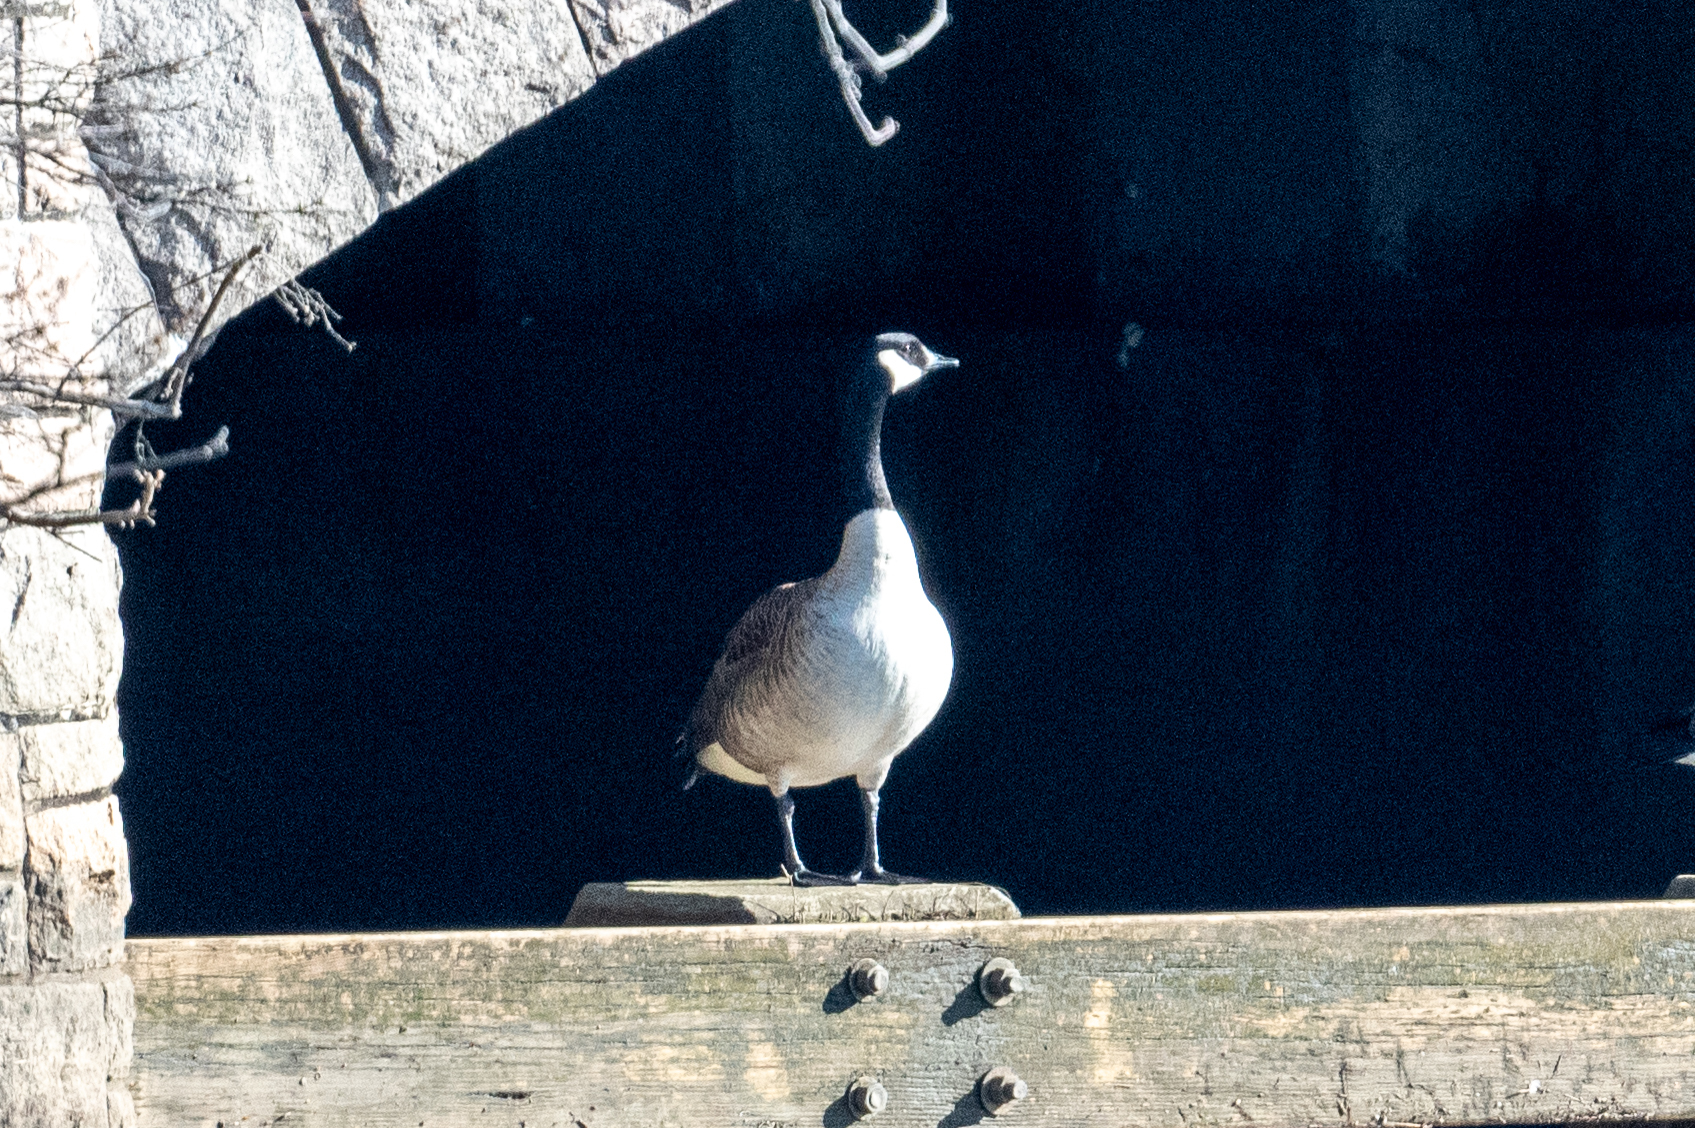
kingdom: Animalia
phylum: Chordata
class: Aves
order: Anseriformes
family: Anatidae
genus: Branta
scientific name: Branta canadensis
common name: Canada goose
